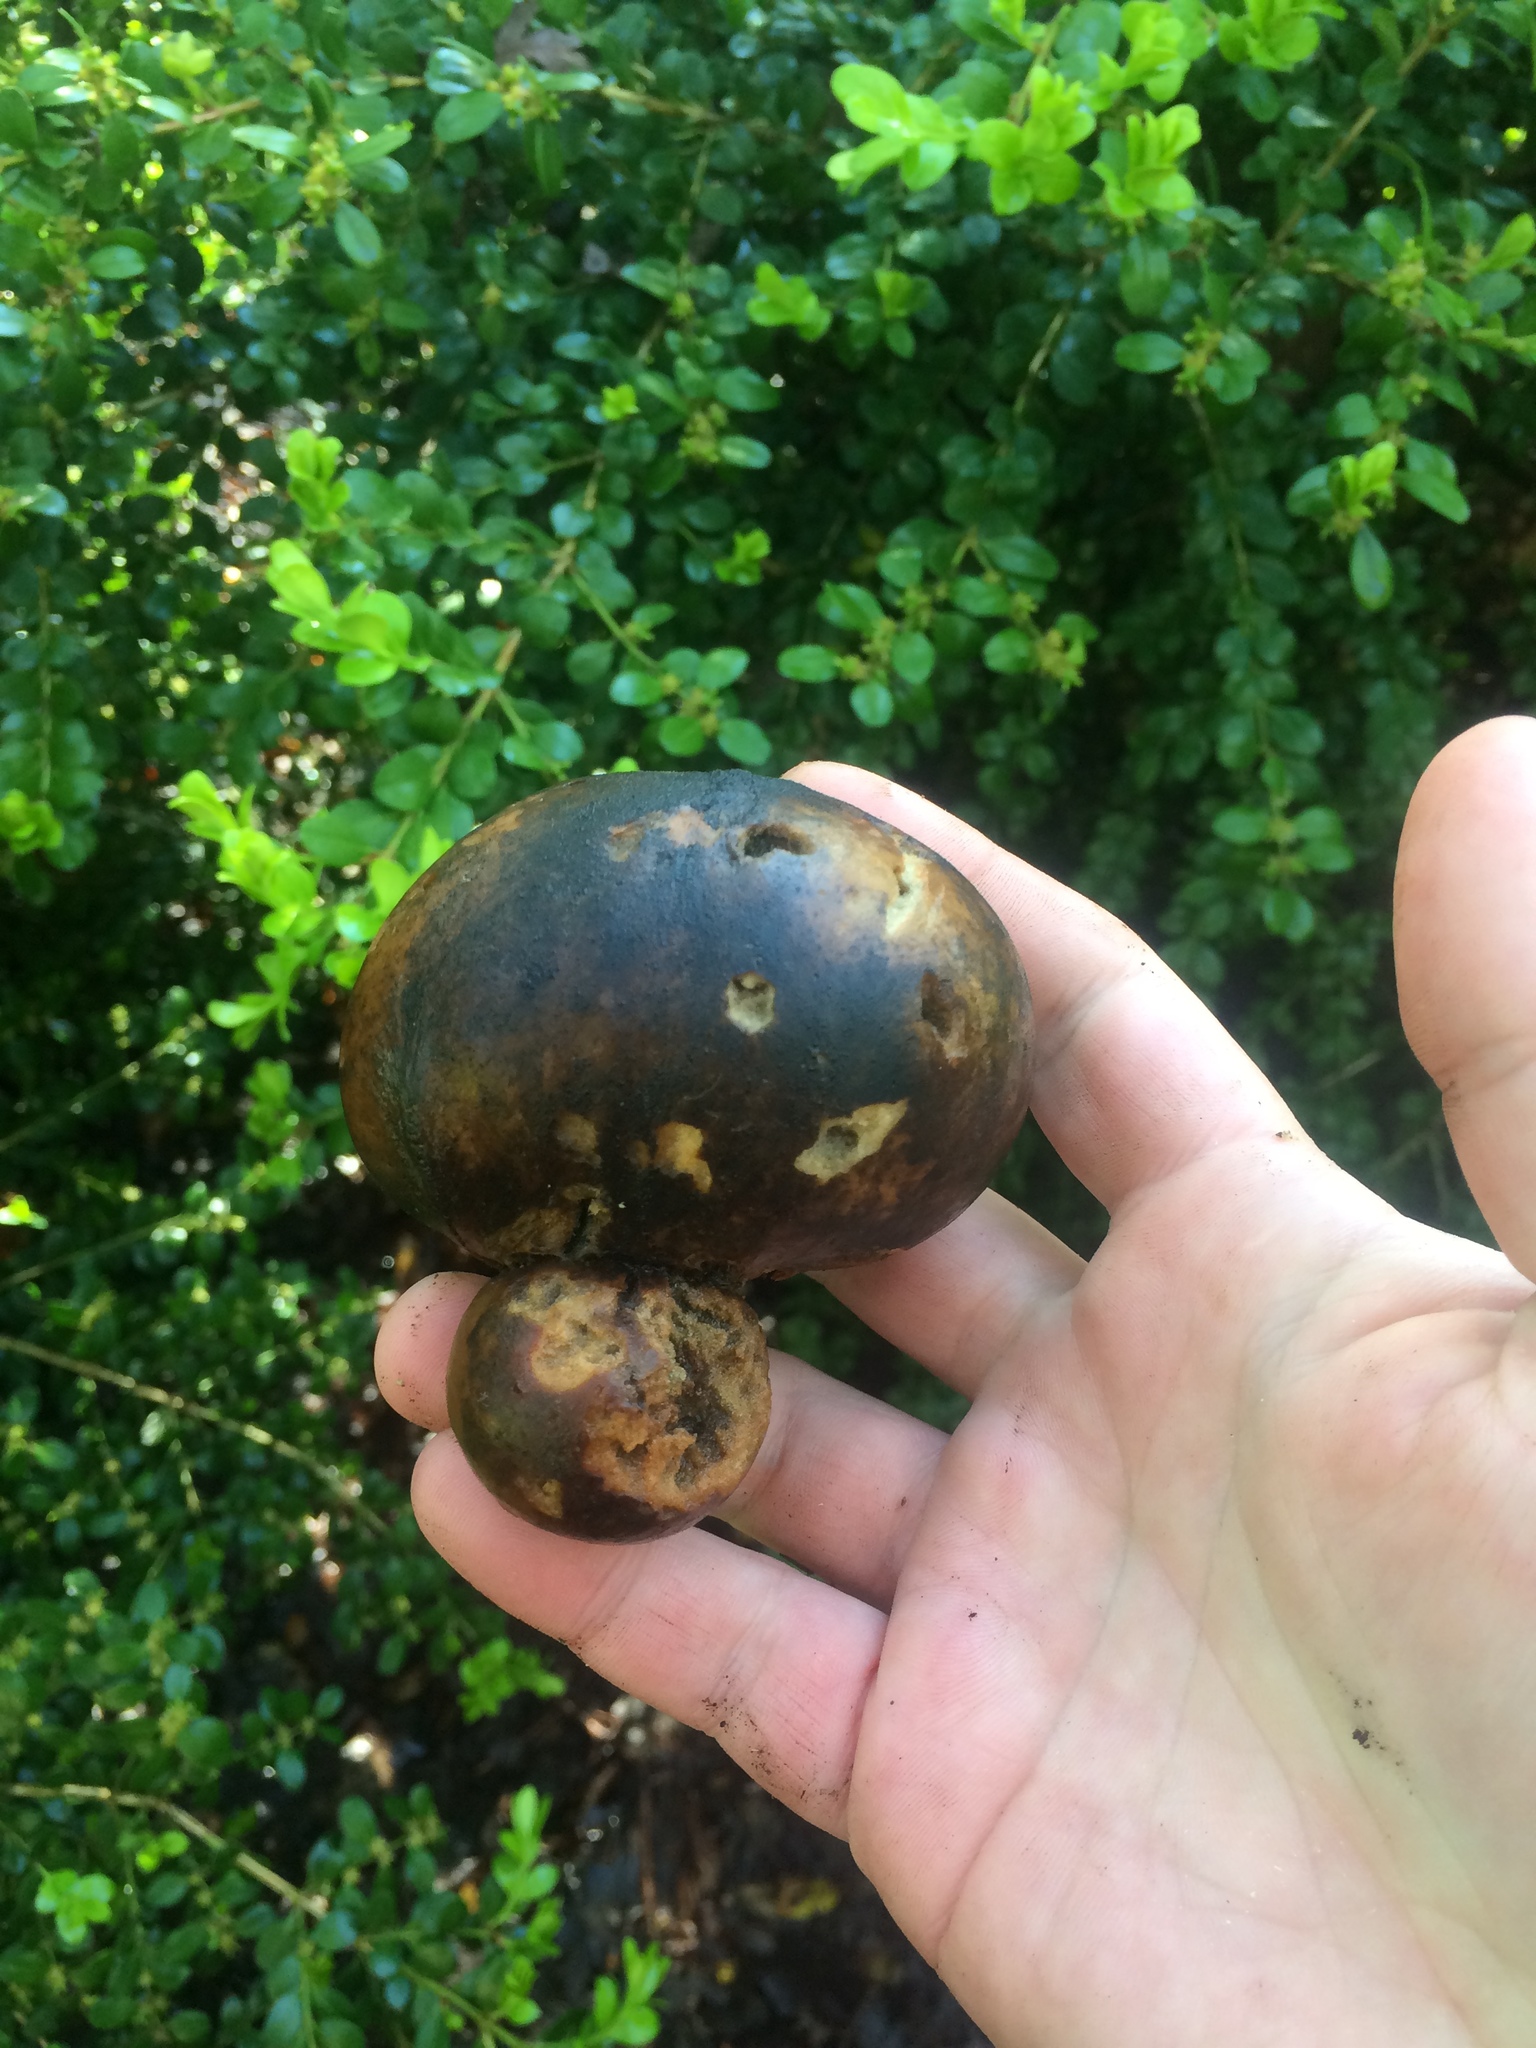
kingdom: Animalia
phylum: Arthropoda
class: Insecta
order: Hymenoptera
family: Cynipidae
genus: Andricus
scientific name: Andricus quercuscalifornicus
